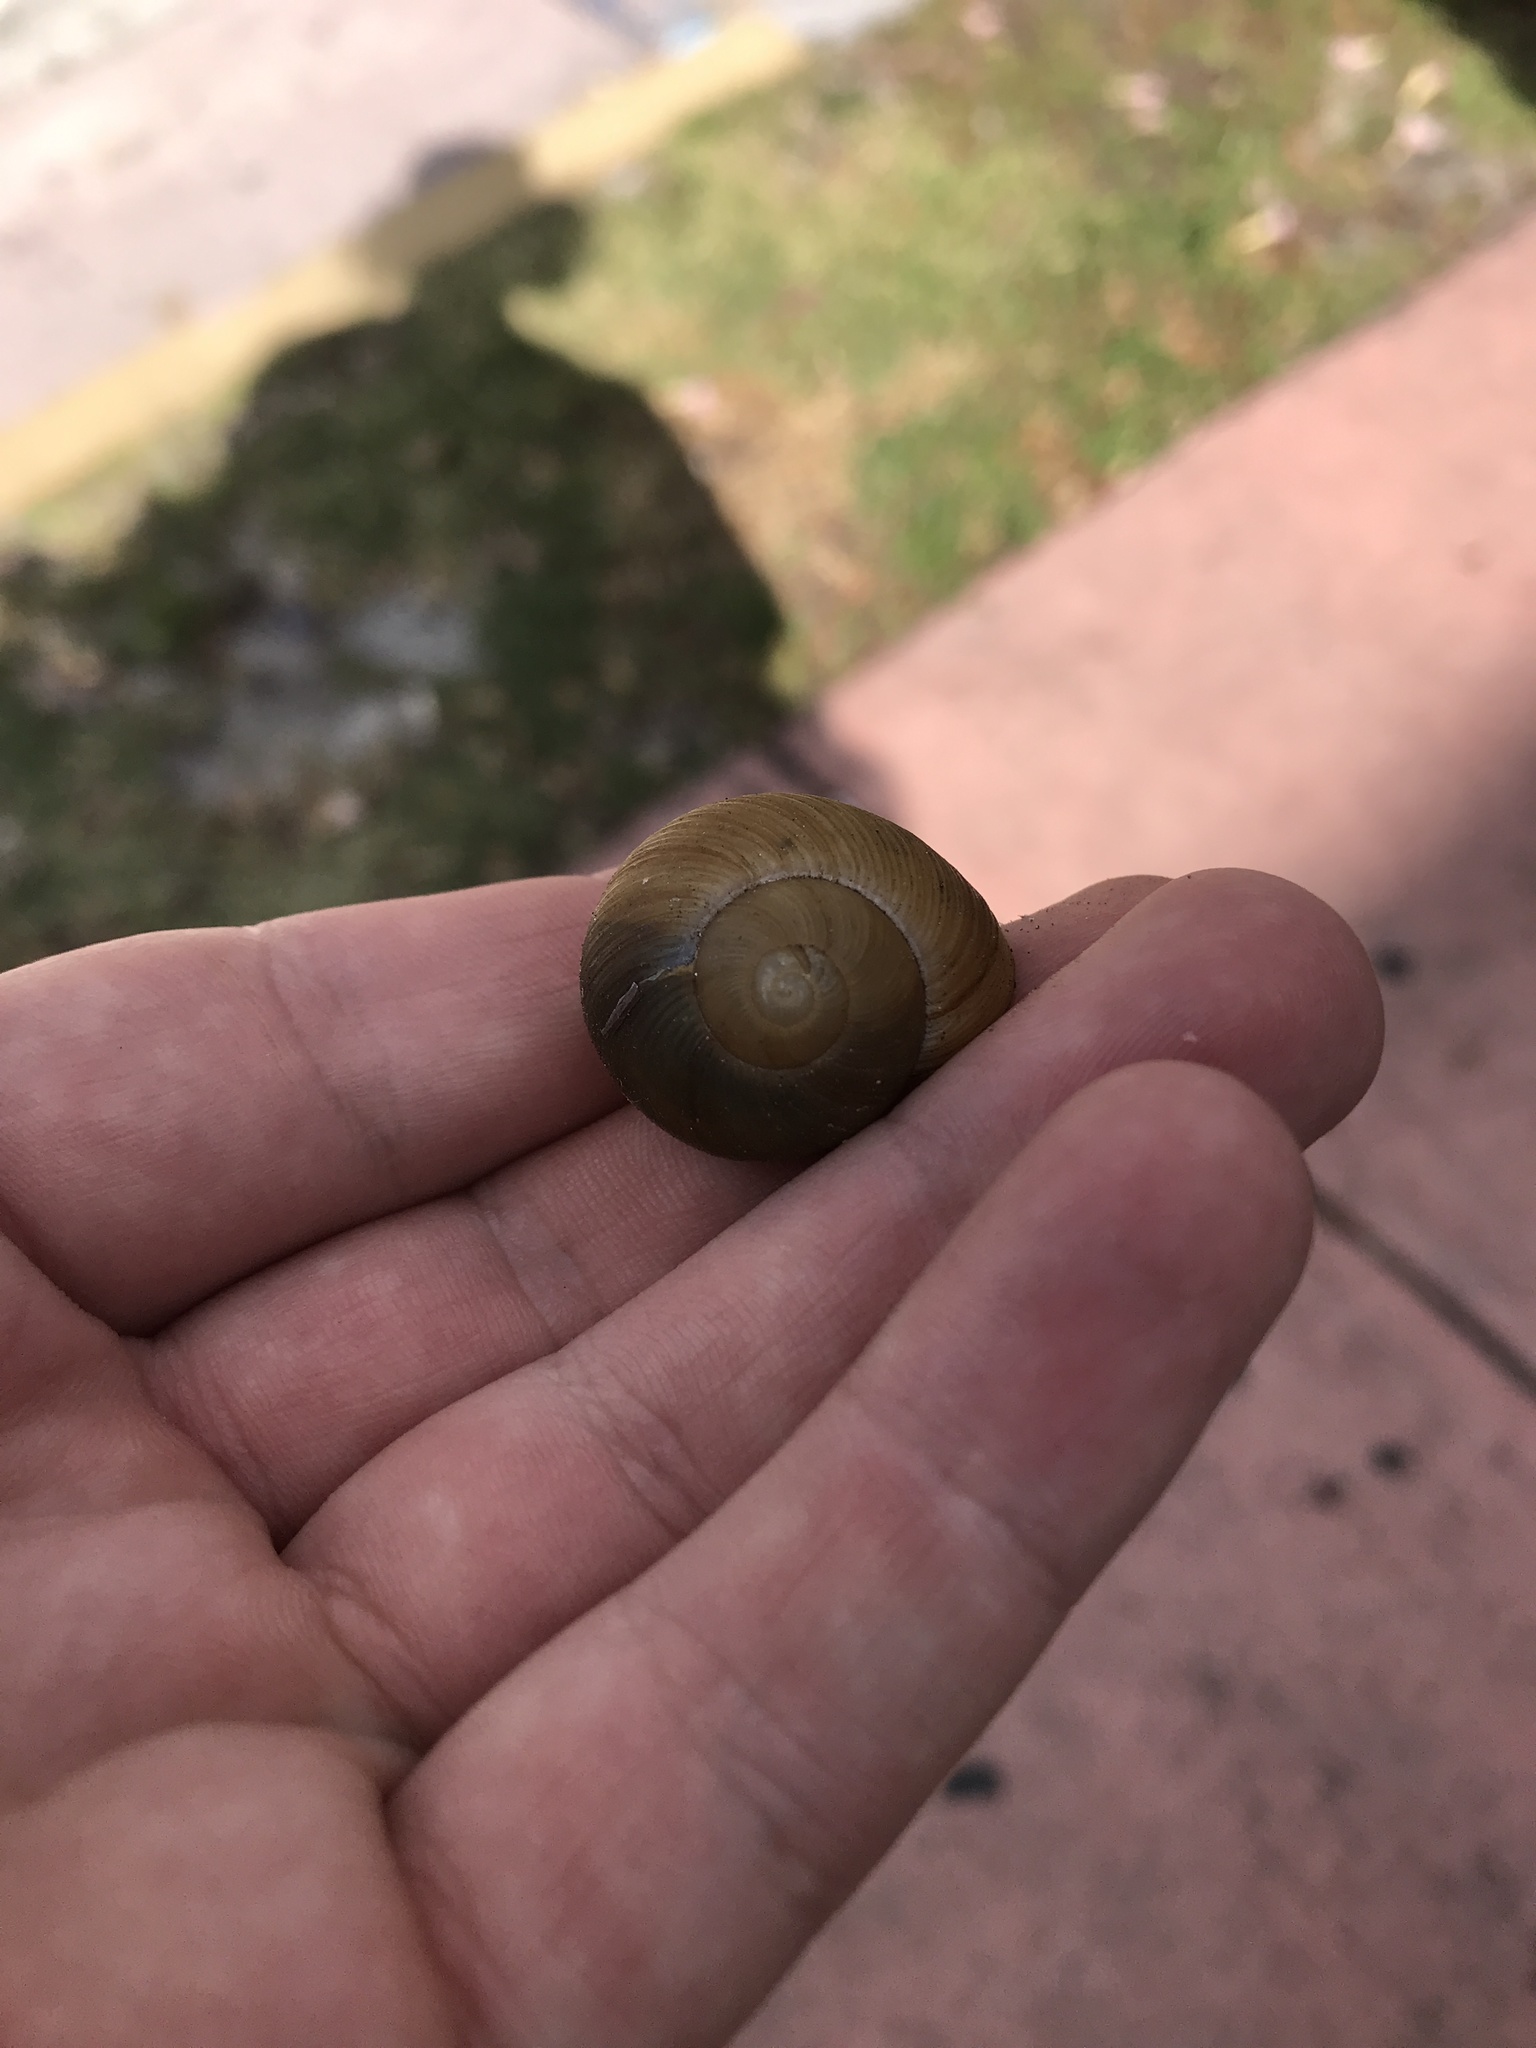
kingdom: Animalia
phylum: Mollusca
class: Gastropoda
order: Stylommatophora
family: Zachrysiidae
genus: Zachrysia
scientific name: Zachrysia provisoria
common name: Garden zachrysia
